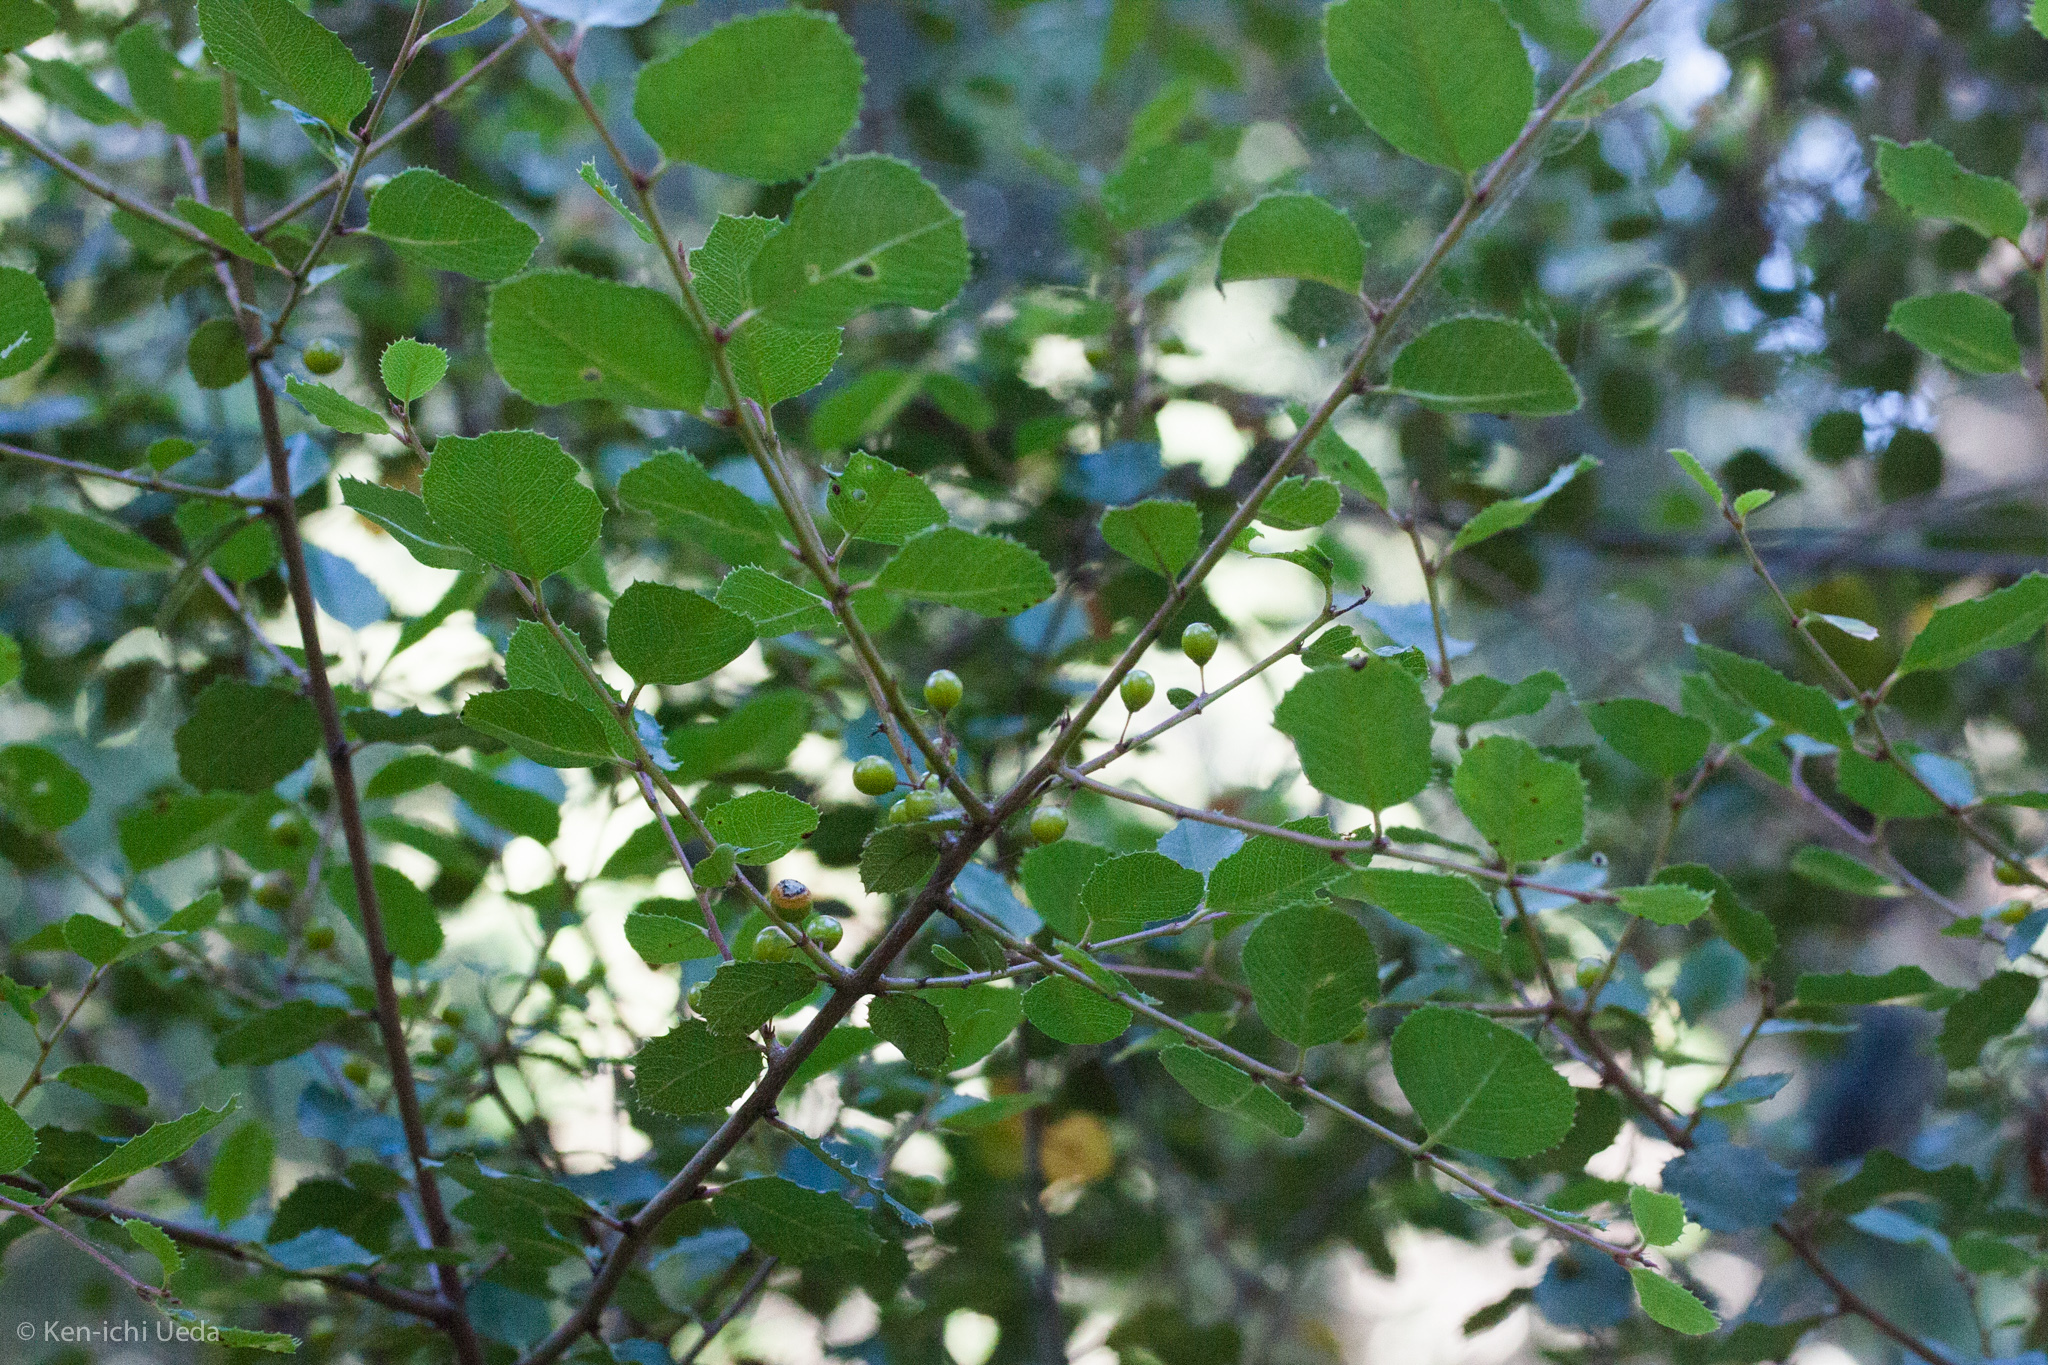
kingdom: Plantae
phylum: Tracheophyta
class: Magnoliopsida
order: Rosales
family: Rhamnaceae
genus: Endotropis
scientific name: Endotropis crocea
